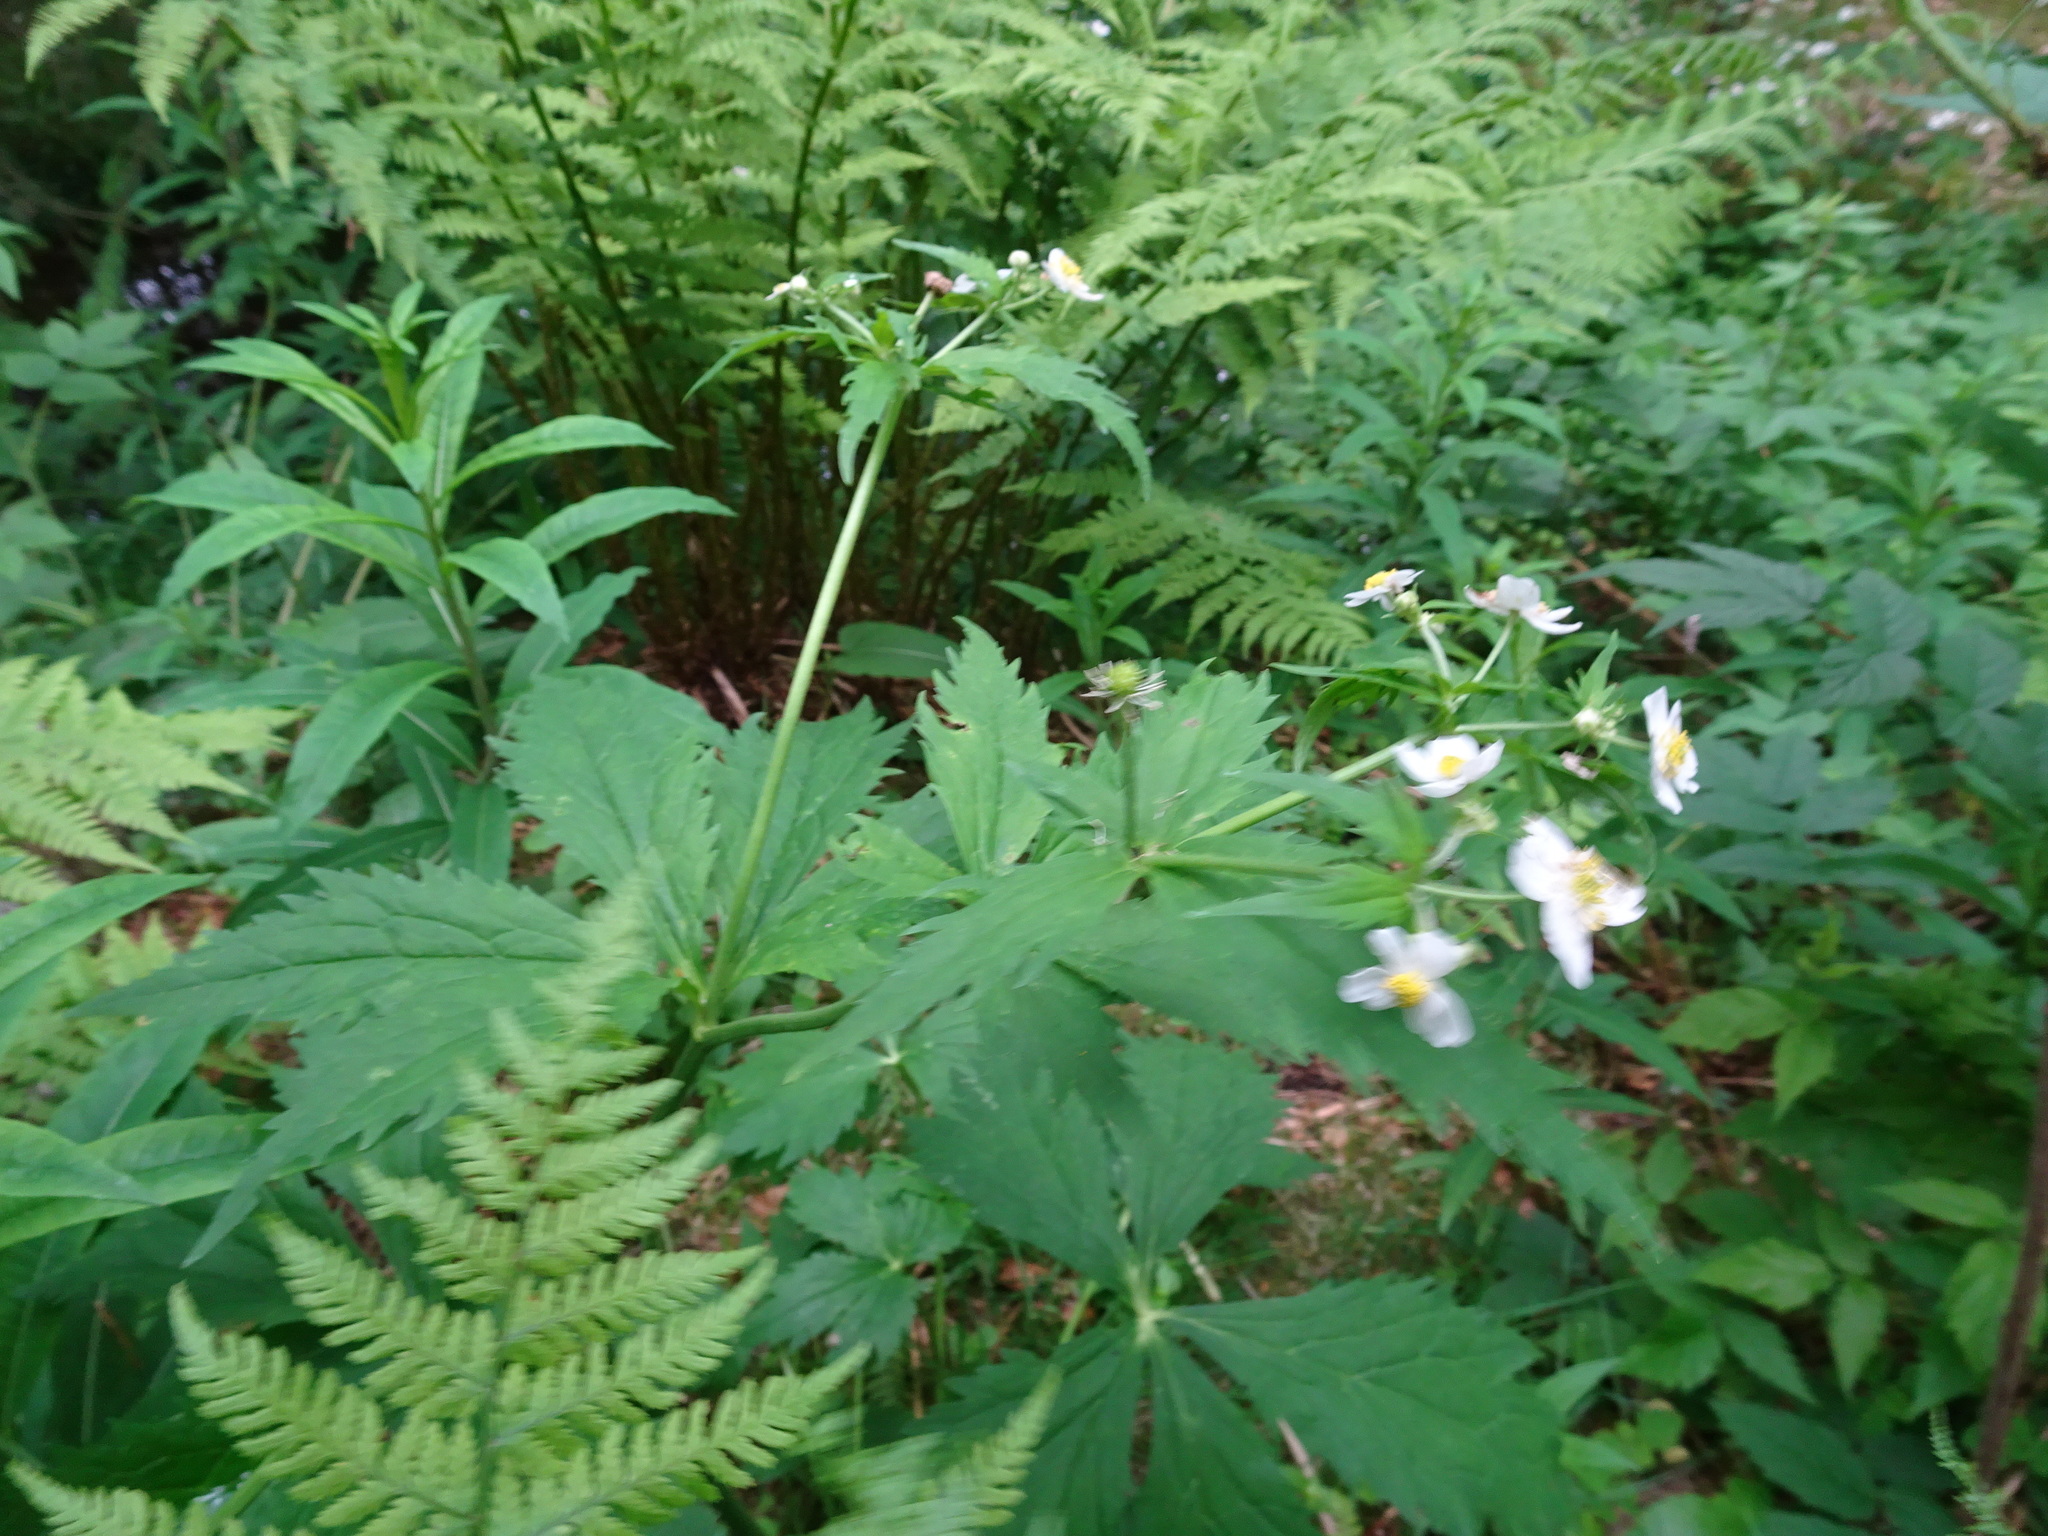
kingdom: Plantae
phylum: Tracheophyta
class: Magnoliopsida
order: Ranunculales
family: Ranunculaceae
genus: Ranunculus
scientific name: Ranunculus aconitifolius
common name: Aconite-leaved buttercup
